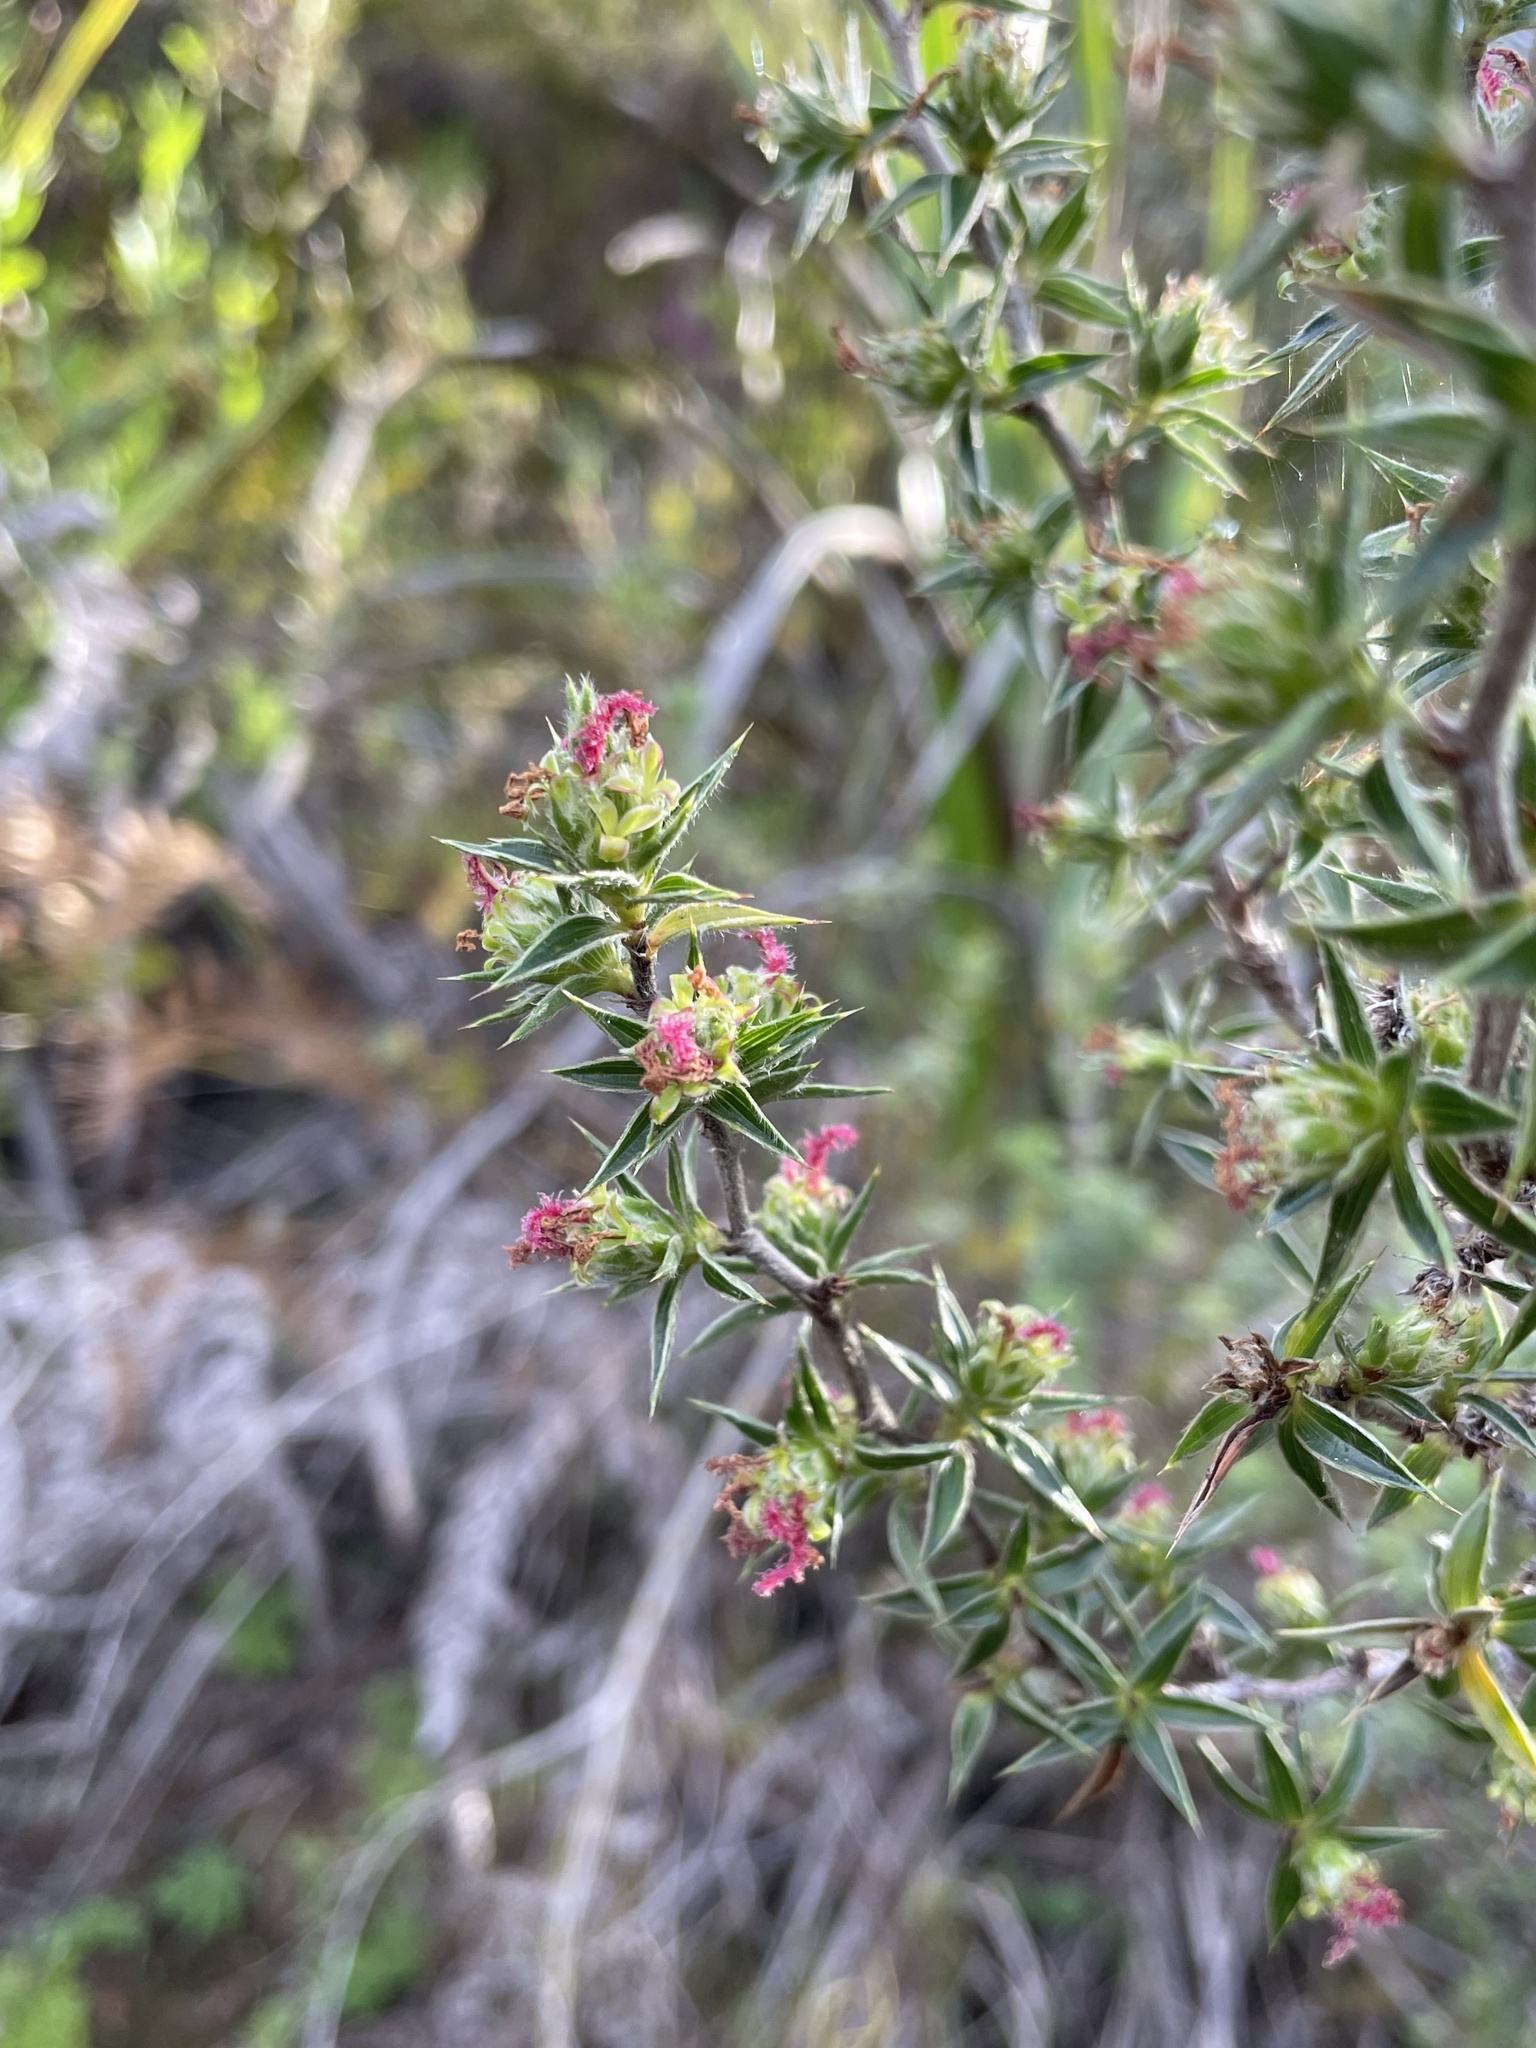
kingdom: Plantae
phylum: Tracheophyta
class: Magnoliopsida
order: Rosales
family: Rosaceae
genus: Cliffortia
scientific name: Cliffortia ruscifolia
